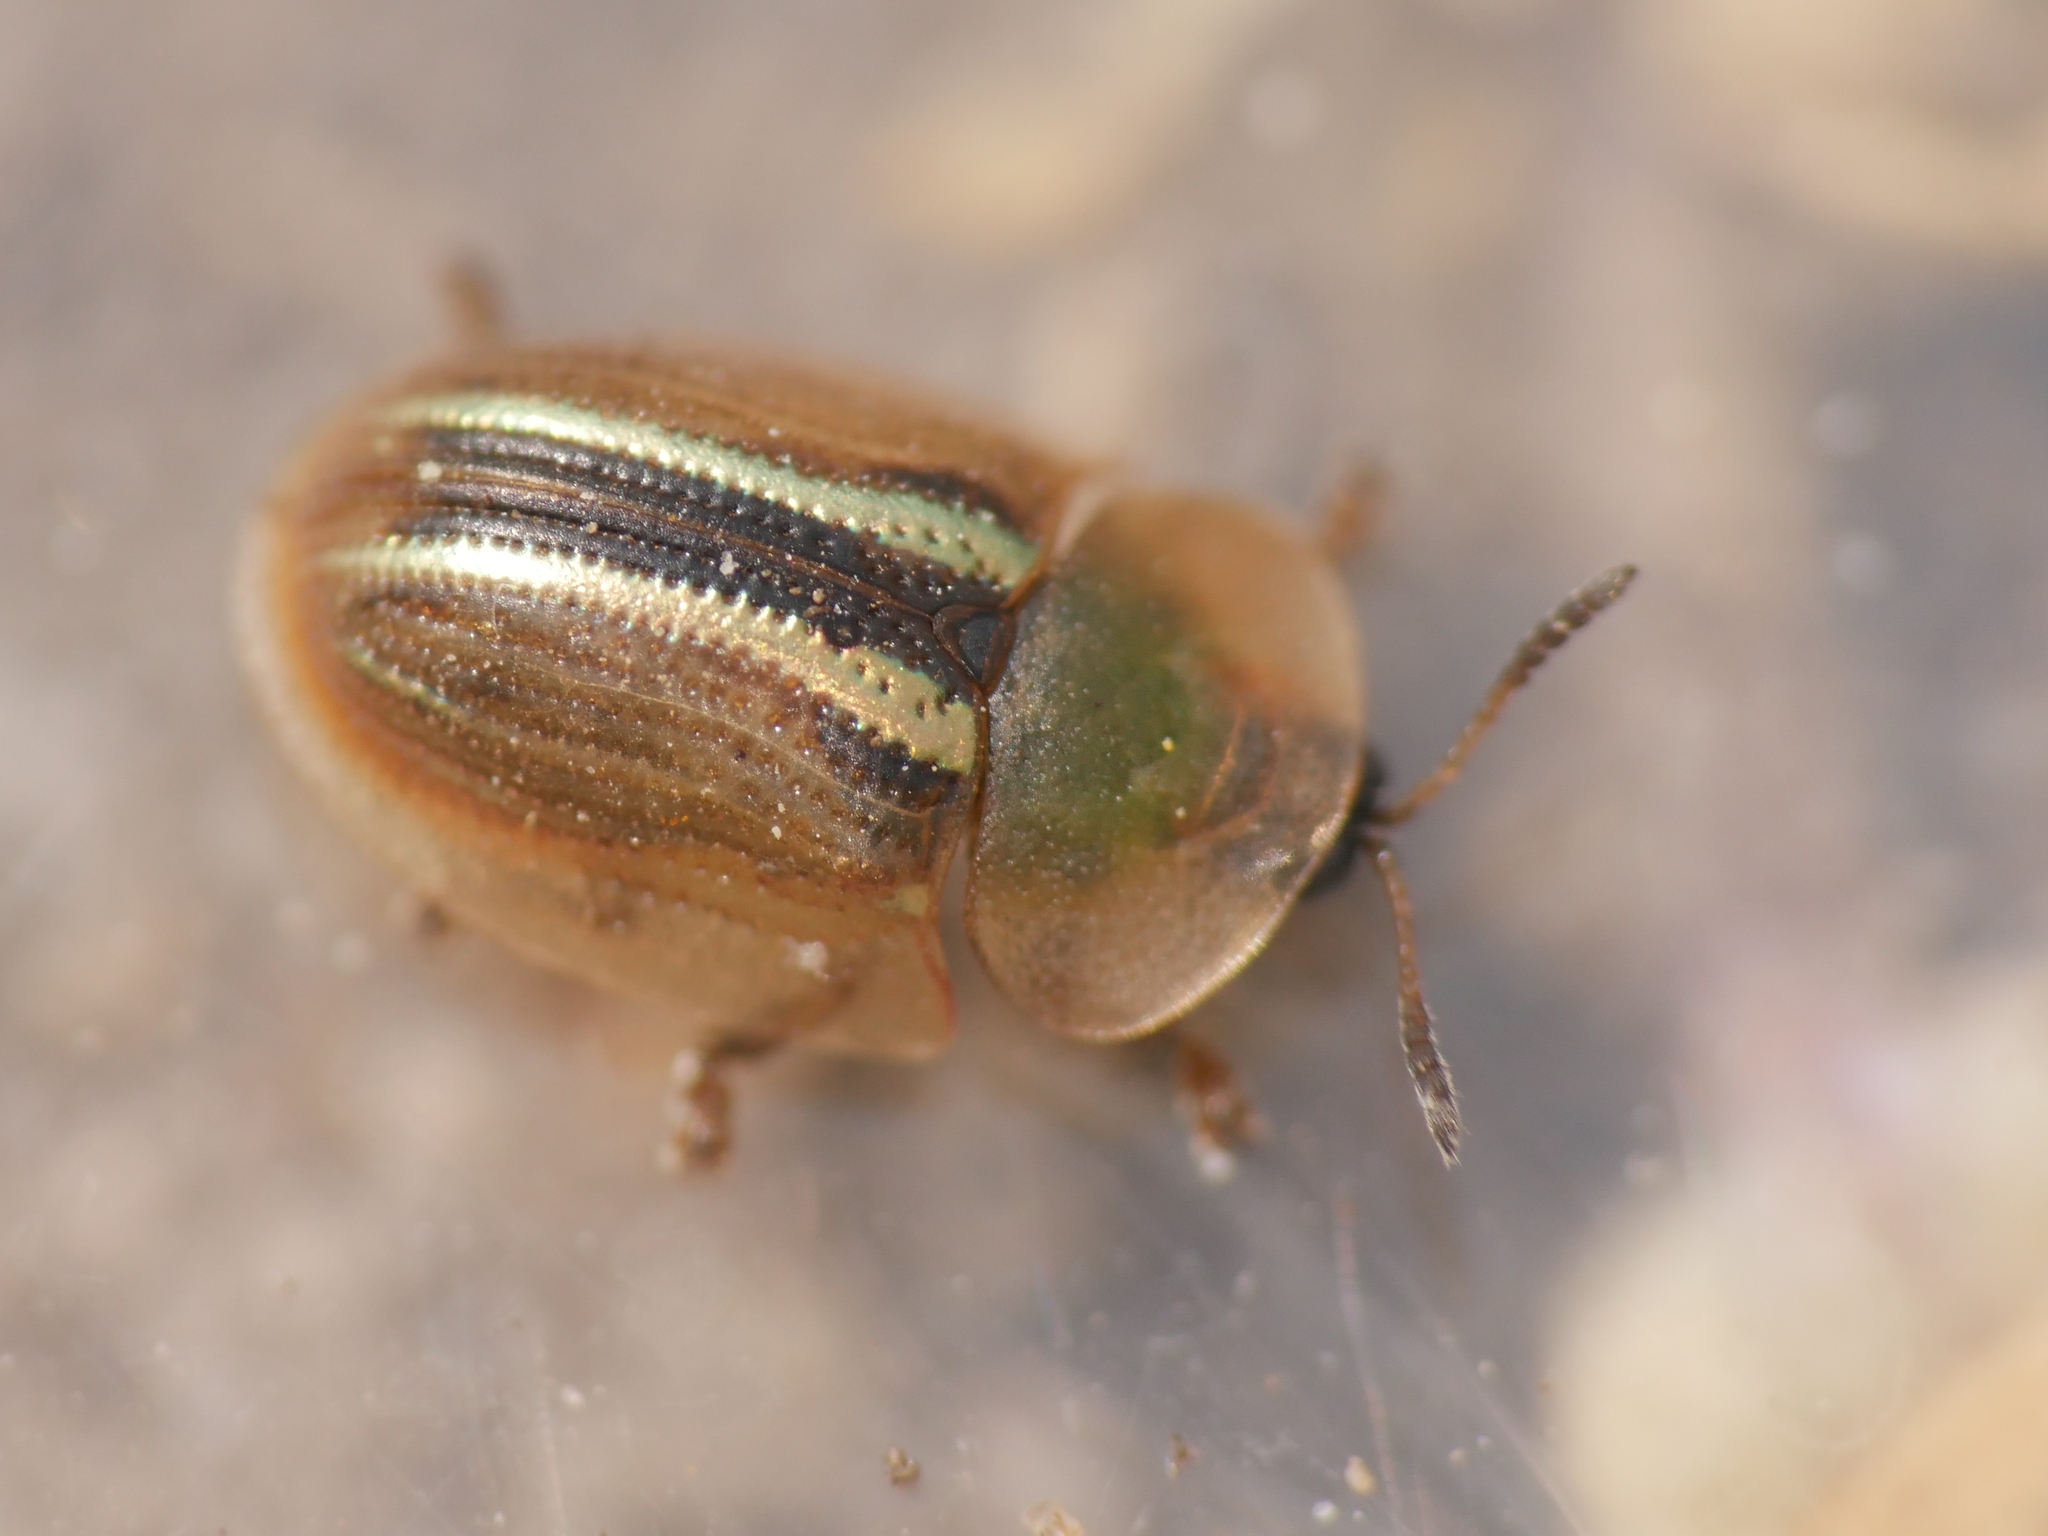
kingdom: Animalia
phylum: Arthropoda
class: Insecta
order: Coleoptera
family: Chrysomelidae
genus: Cassida
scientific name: Cassida nobilis
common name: Leaf beetle
